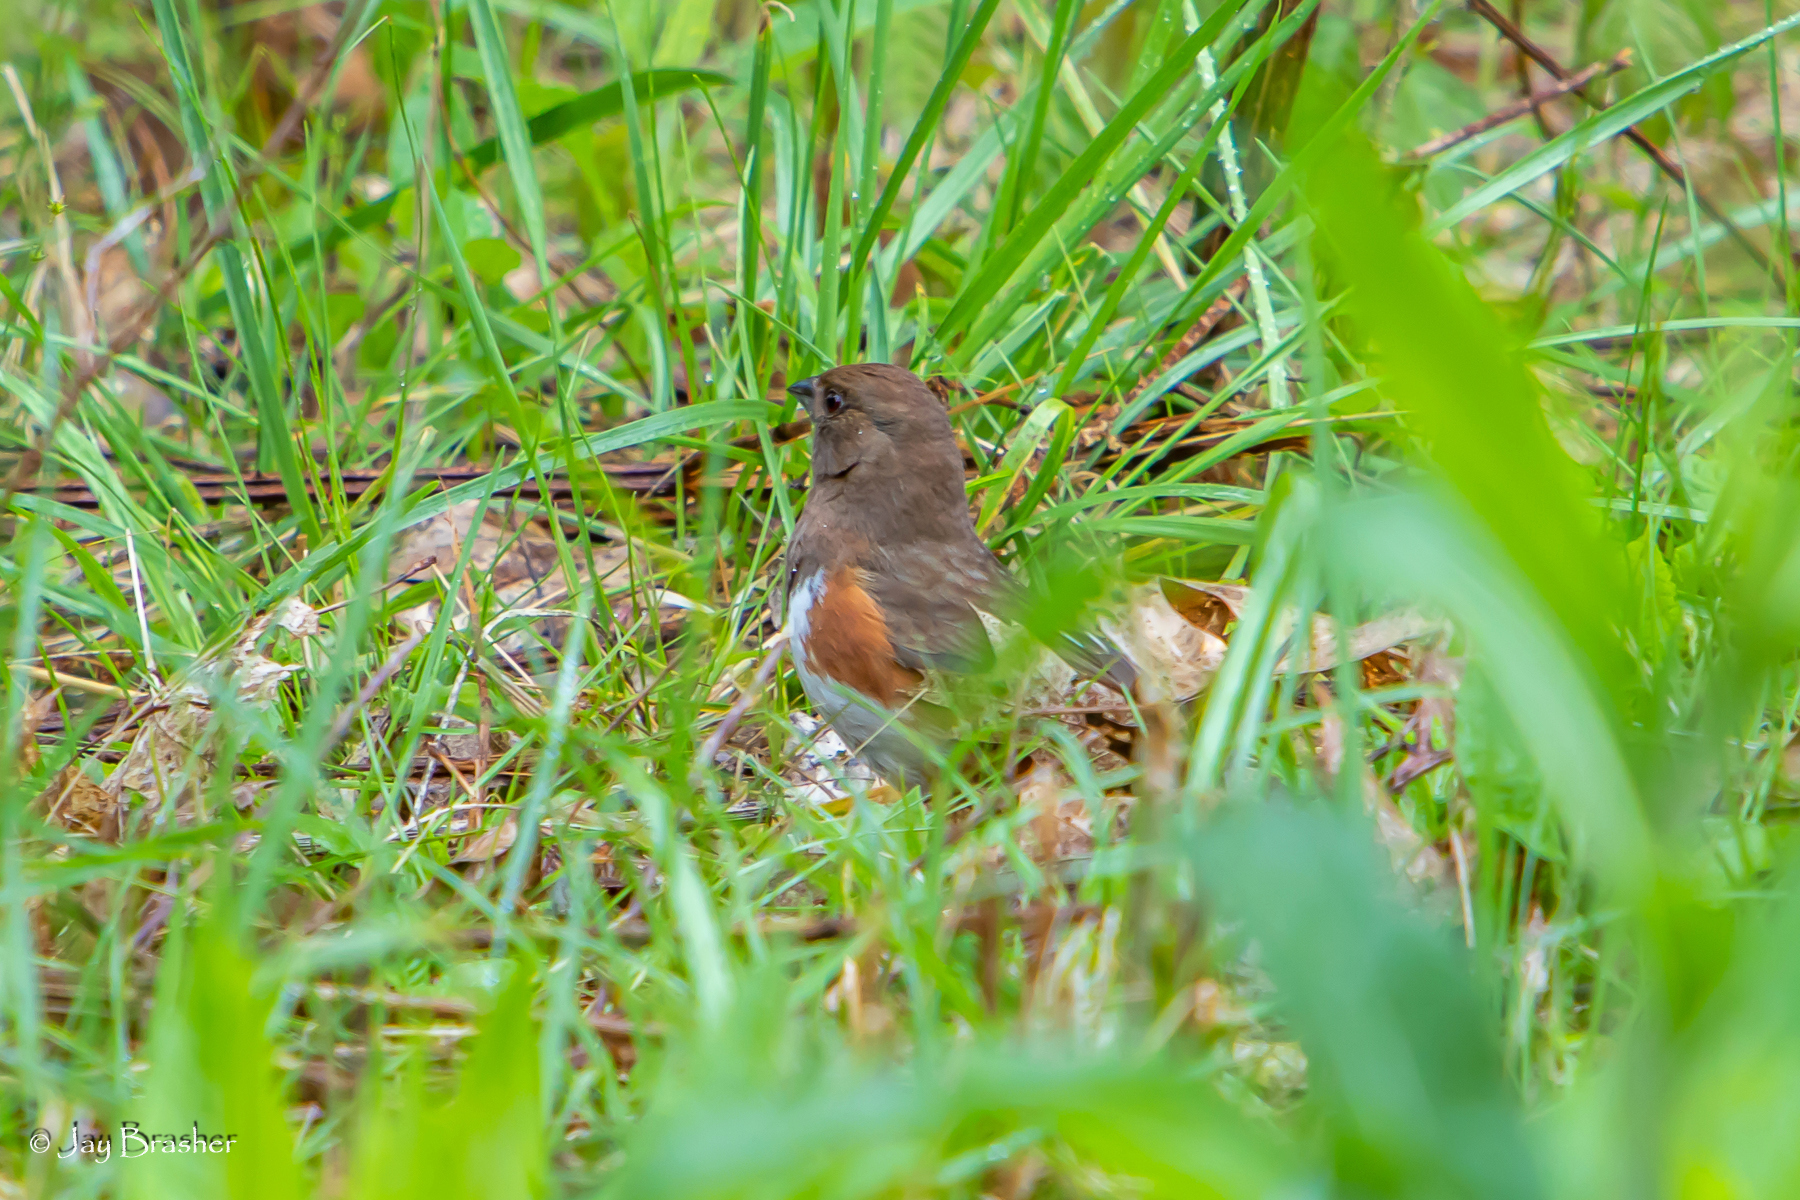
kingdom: Animalia
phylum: Chordata
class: Aves
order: Passeriformes
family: Passerellidae
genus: Pipilo
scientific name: Pipilo erythrophthalmus
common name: Eastern towhee
